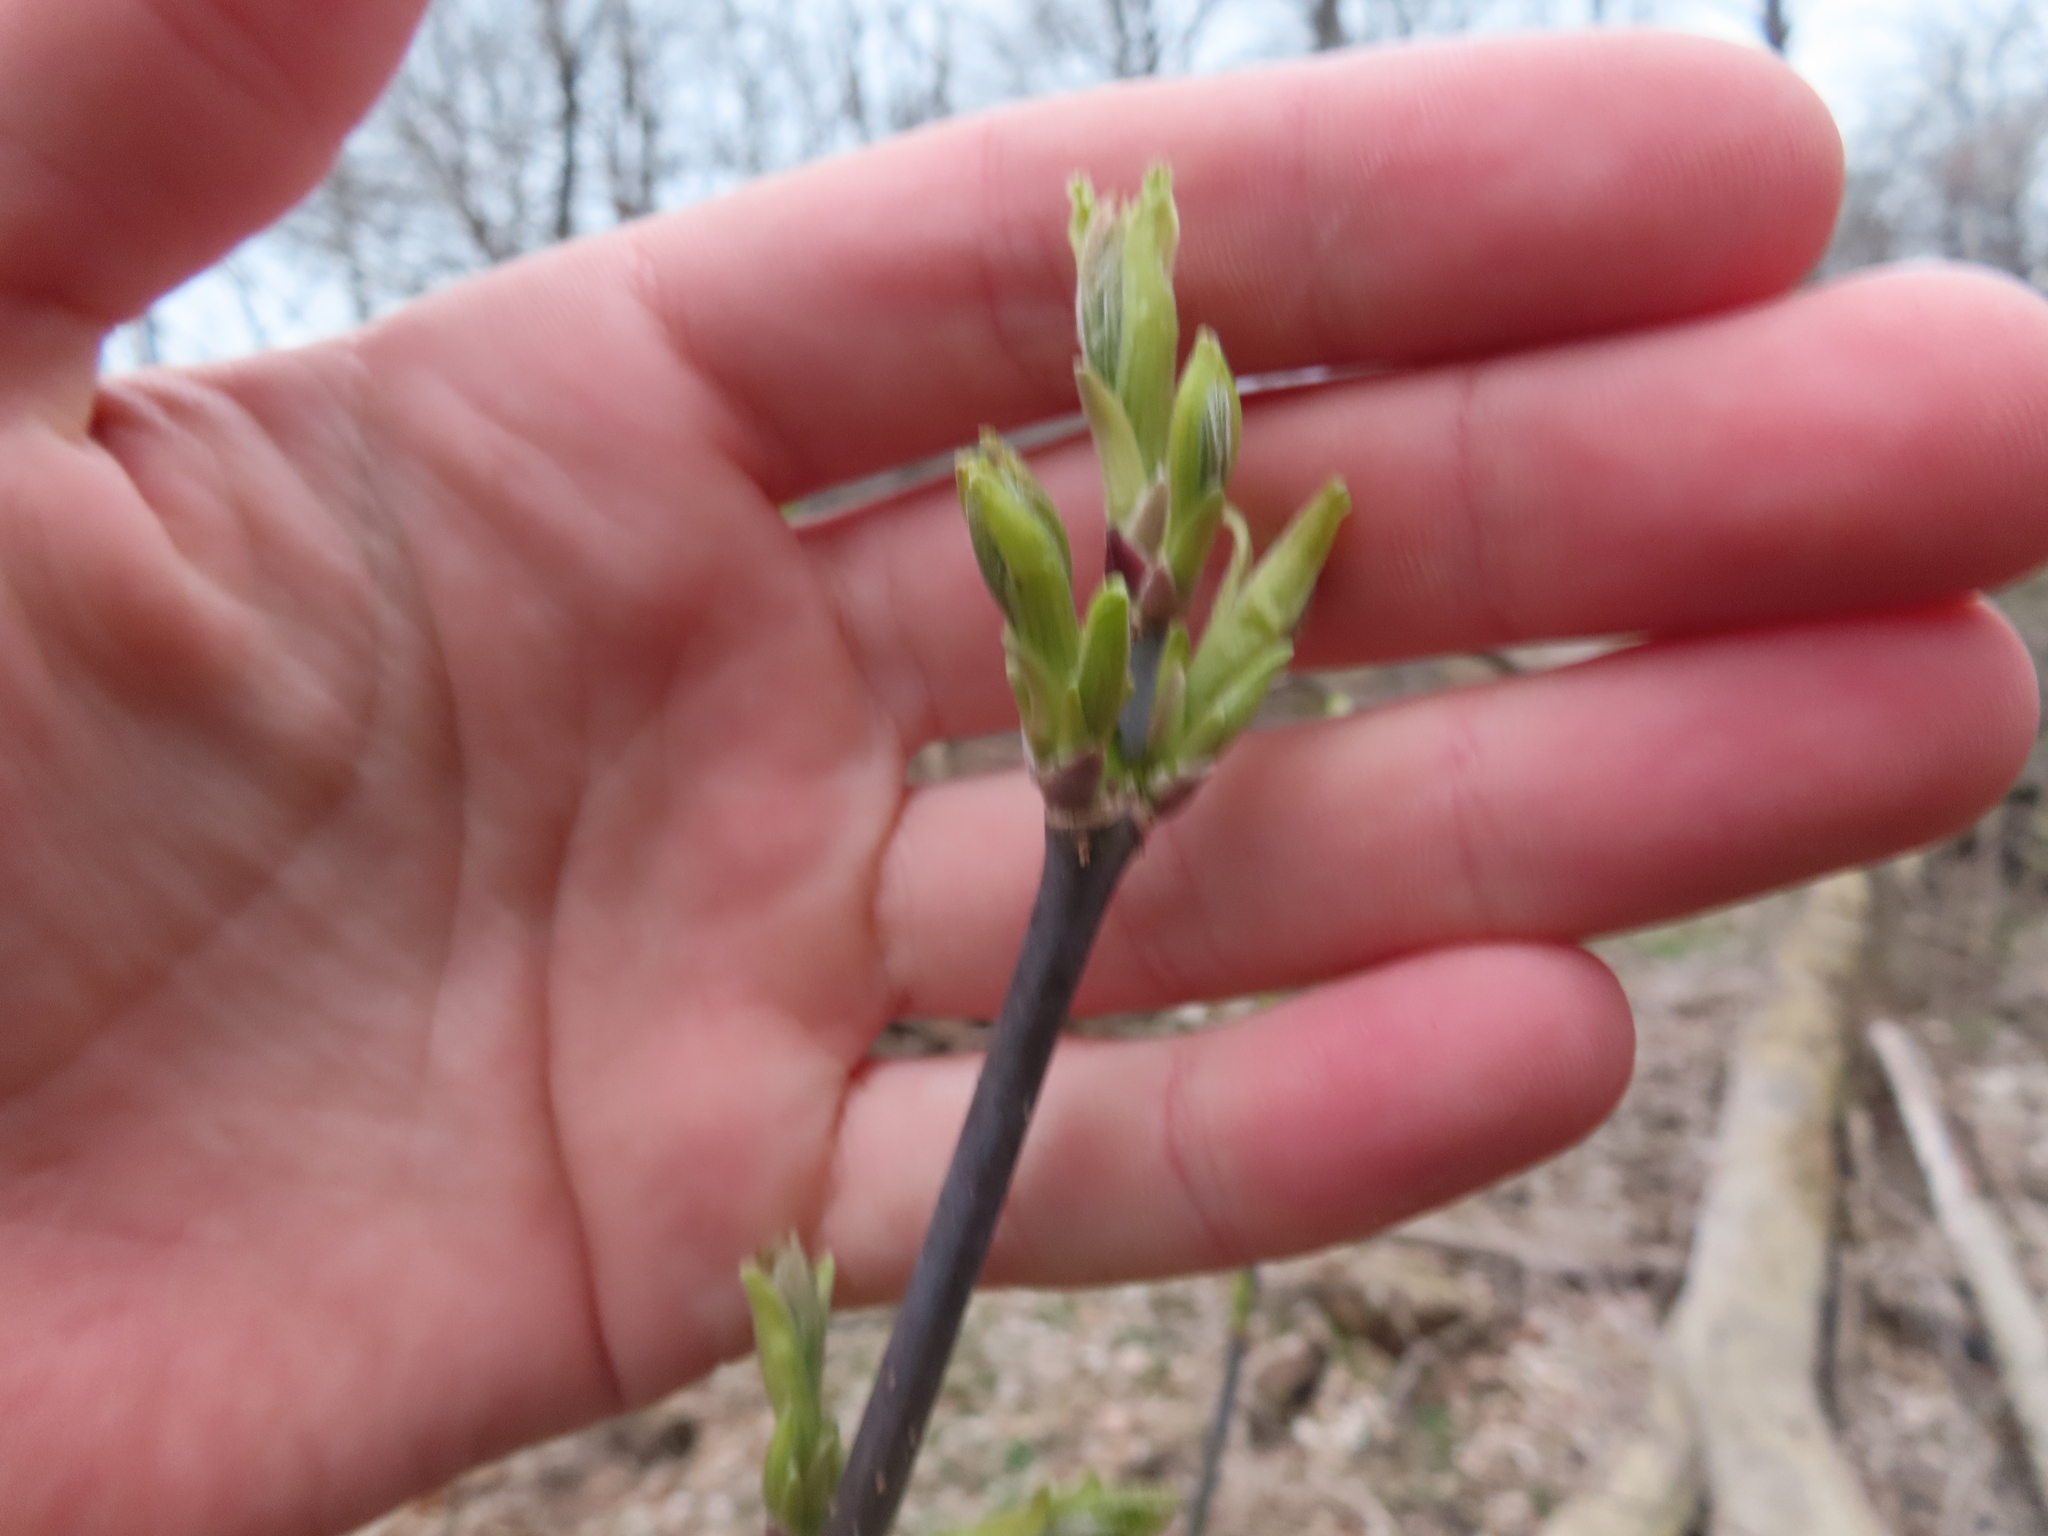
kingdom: Plantae
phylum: Tracheophyta
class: Magnoliopsida
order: Sapindales
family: Sapindaceae
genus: Acer
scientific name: Acer negundo
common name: Ashleaf maple
